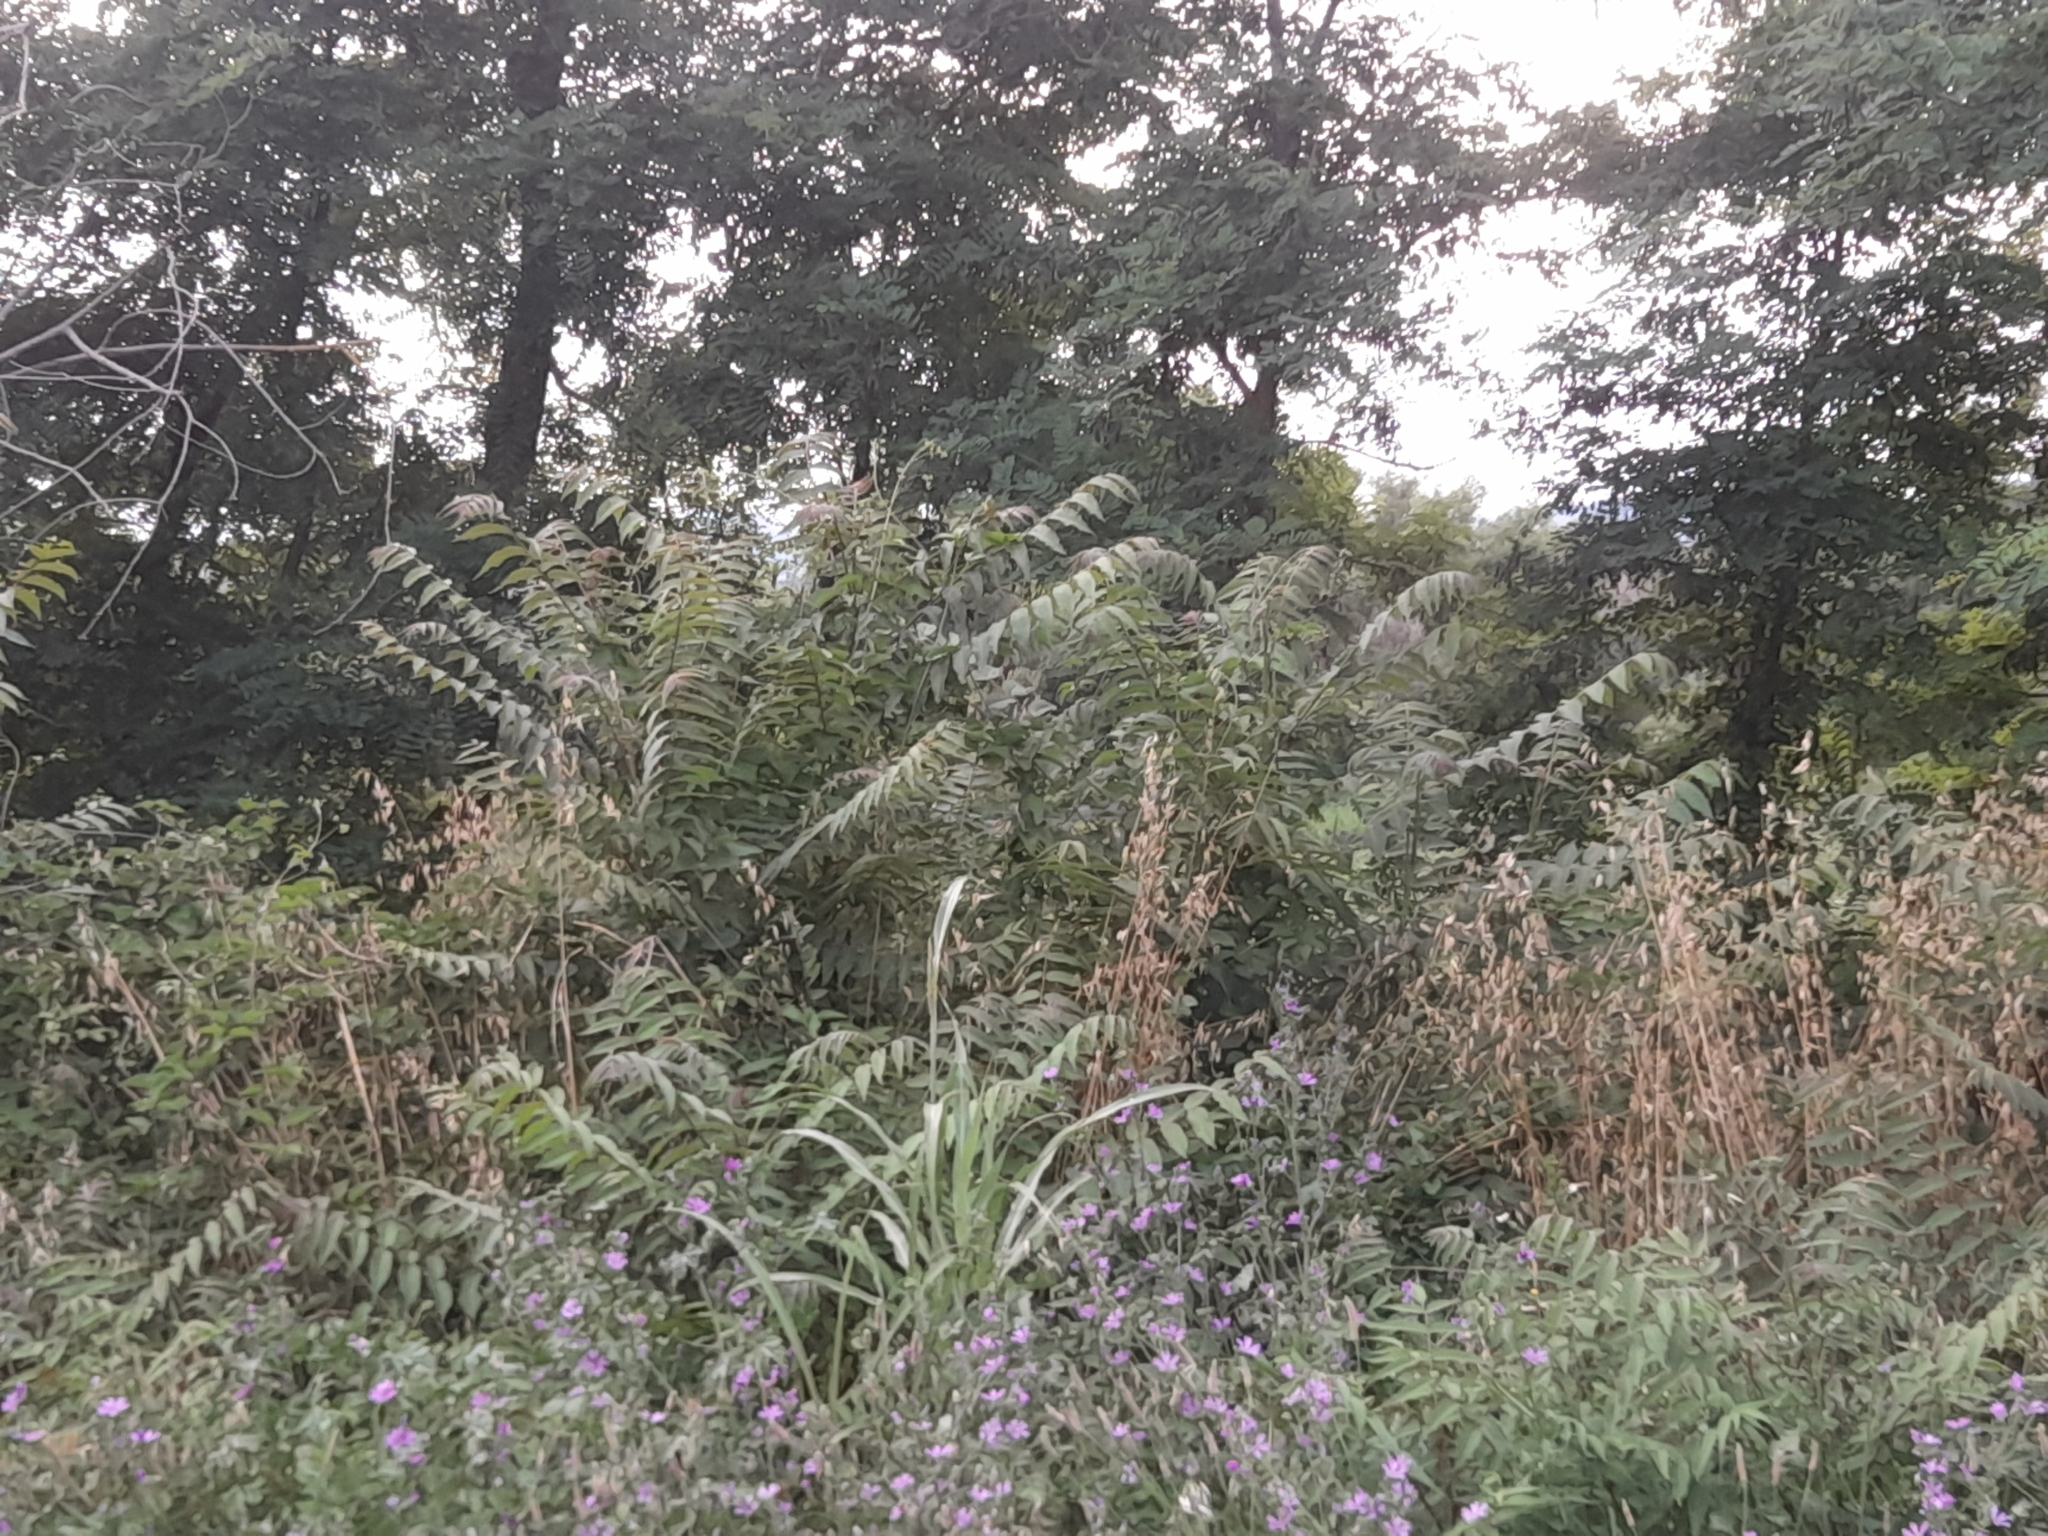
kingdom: Plantae
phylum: Tracheophyta
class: Magnoliopsida
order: Sapindales
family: Simaroubaceae
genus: Ailanthus
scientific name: Ailanthus altissima
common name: Tree-of-heaven
